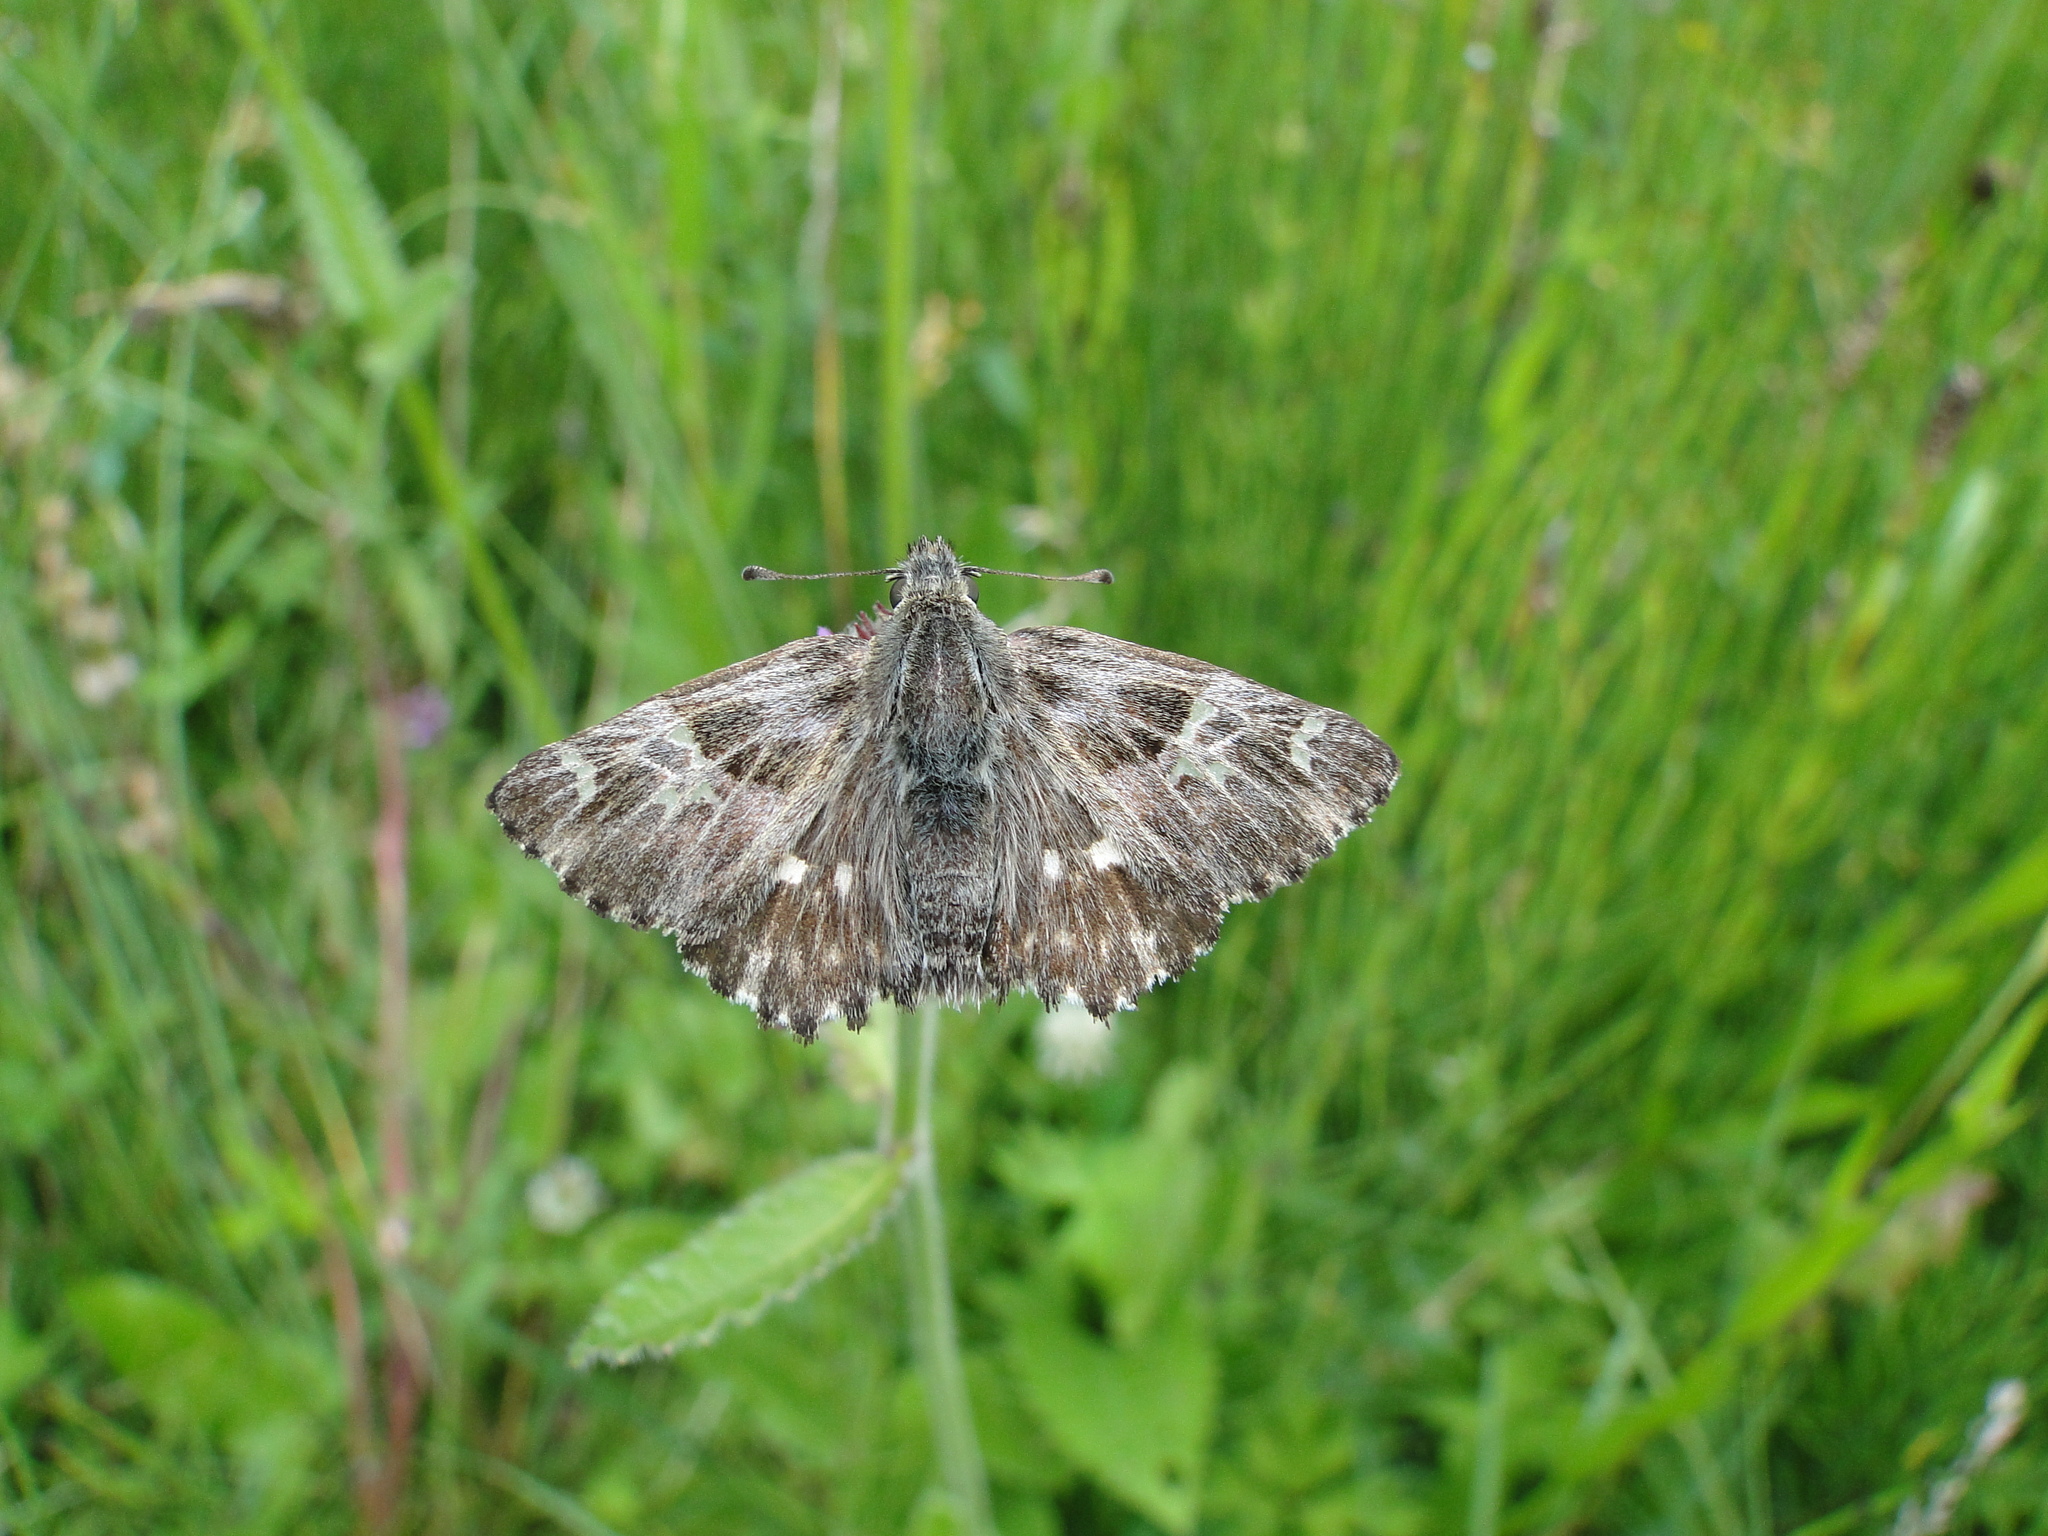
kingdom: Animalia
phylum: Arthropoda
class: Insecta
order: Lepidoptera
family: Hesperiidae
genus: Carcharodus
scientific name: Carcharodus floccifera
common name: Tufted marbled skipper
